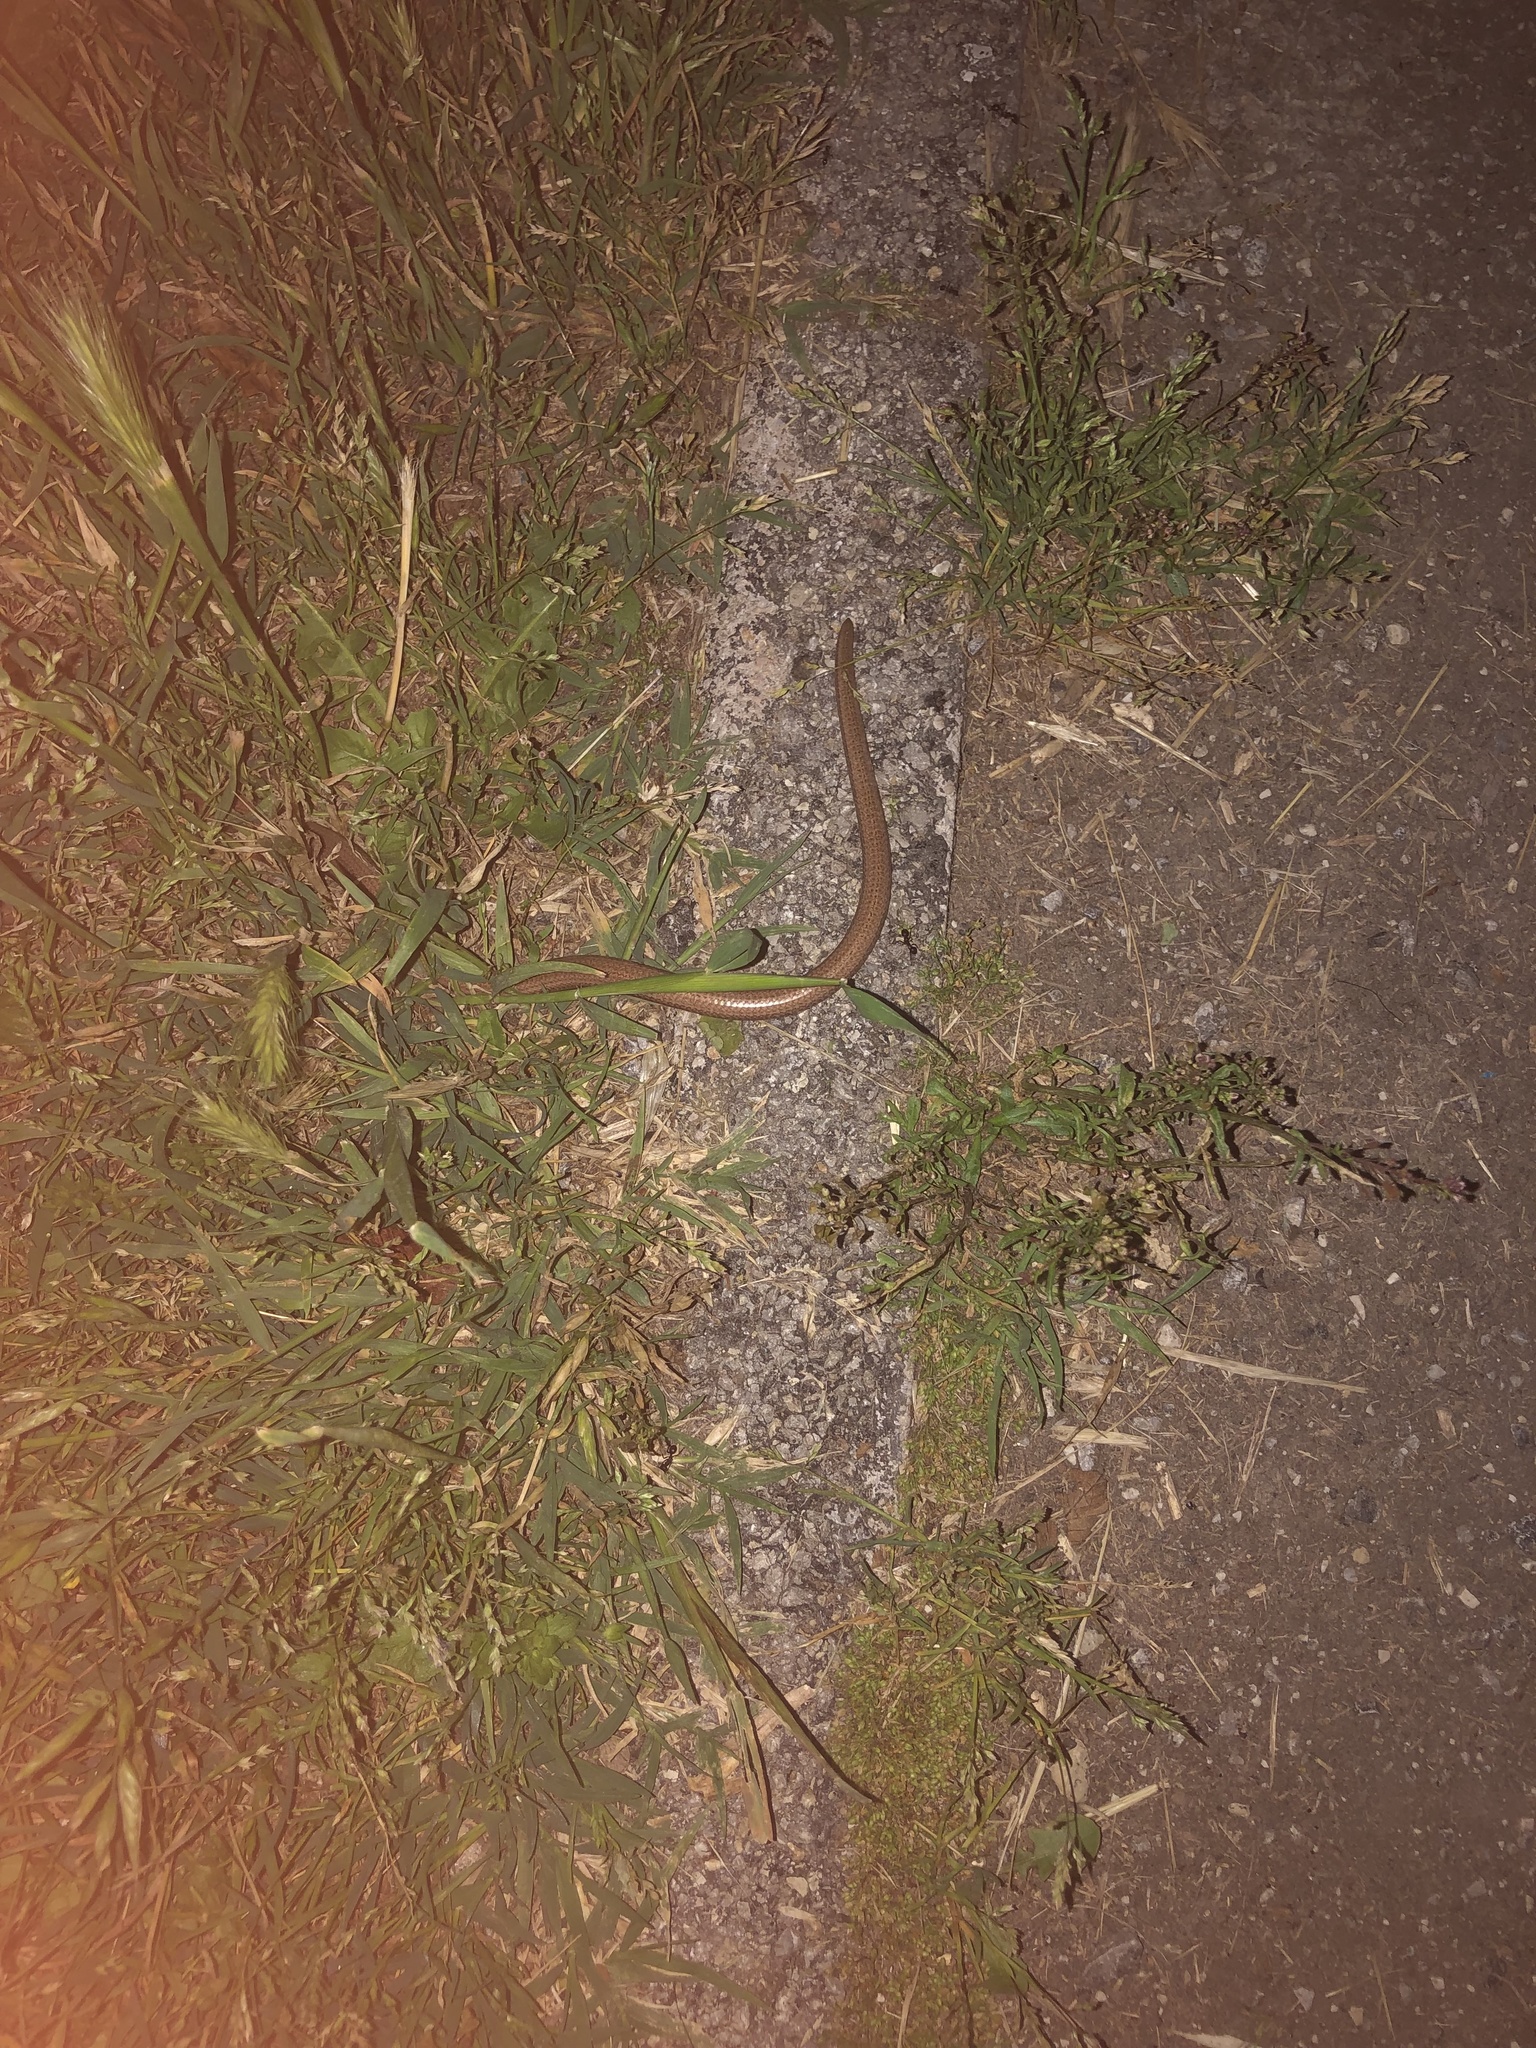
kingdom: Animalia
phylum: Chordata
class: Squamata
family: Anguidae
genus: Anguis
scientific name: Anguis veronensis
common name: Italian slow worm
